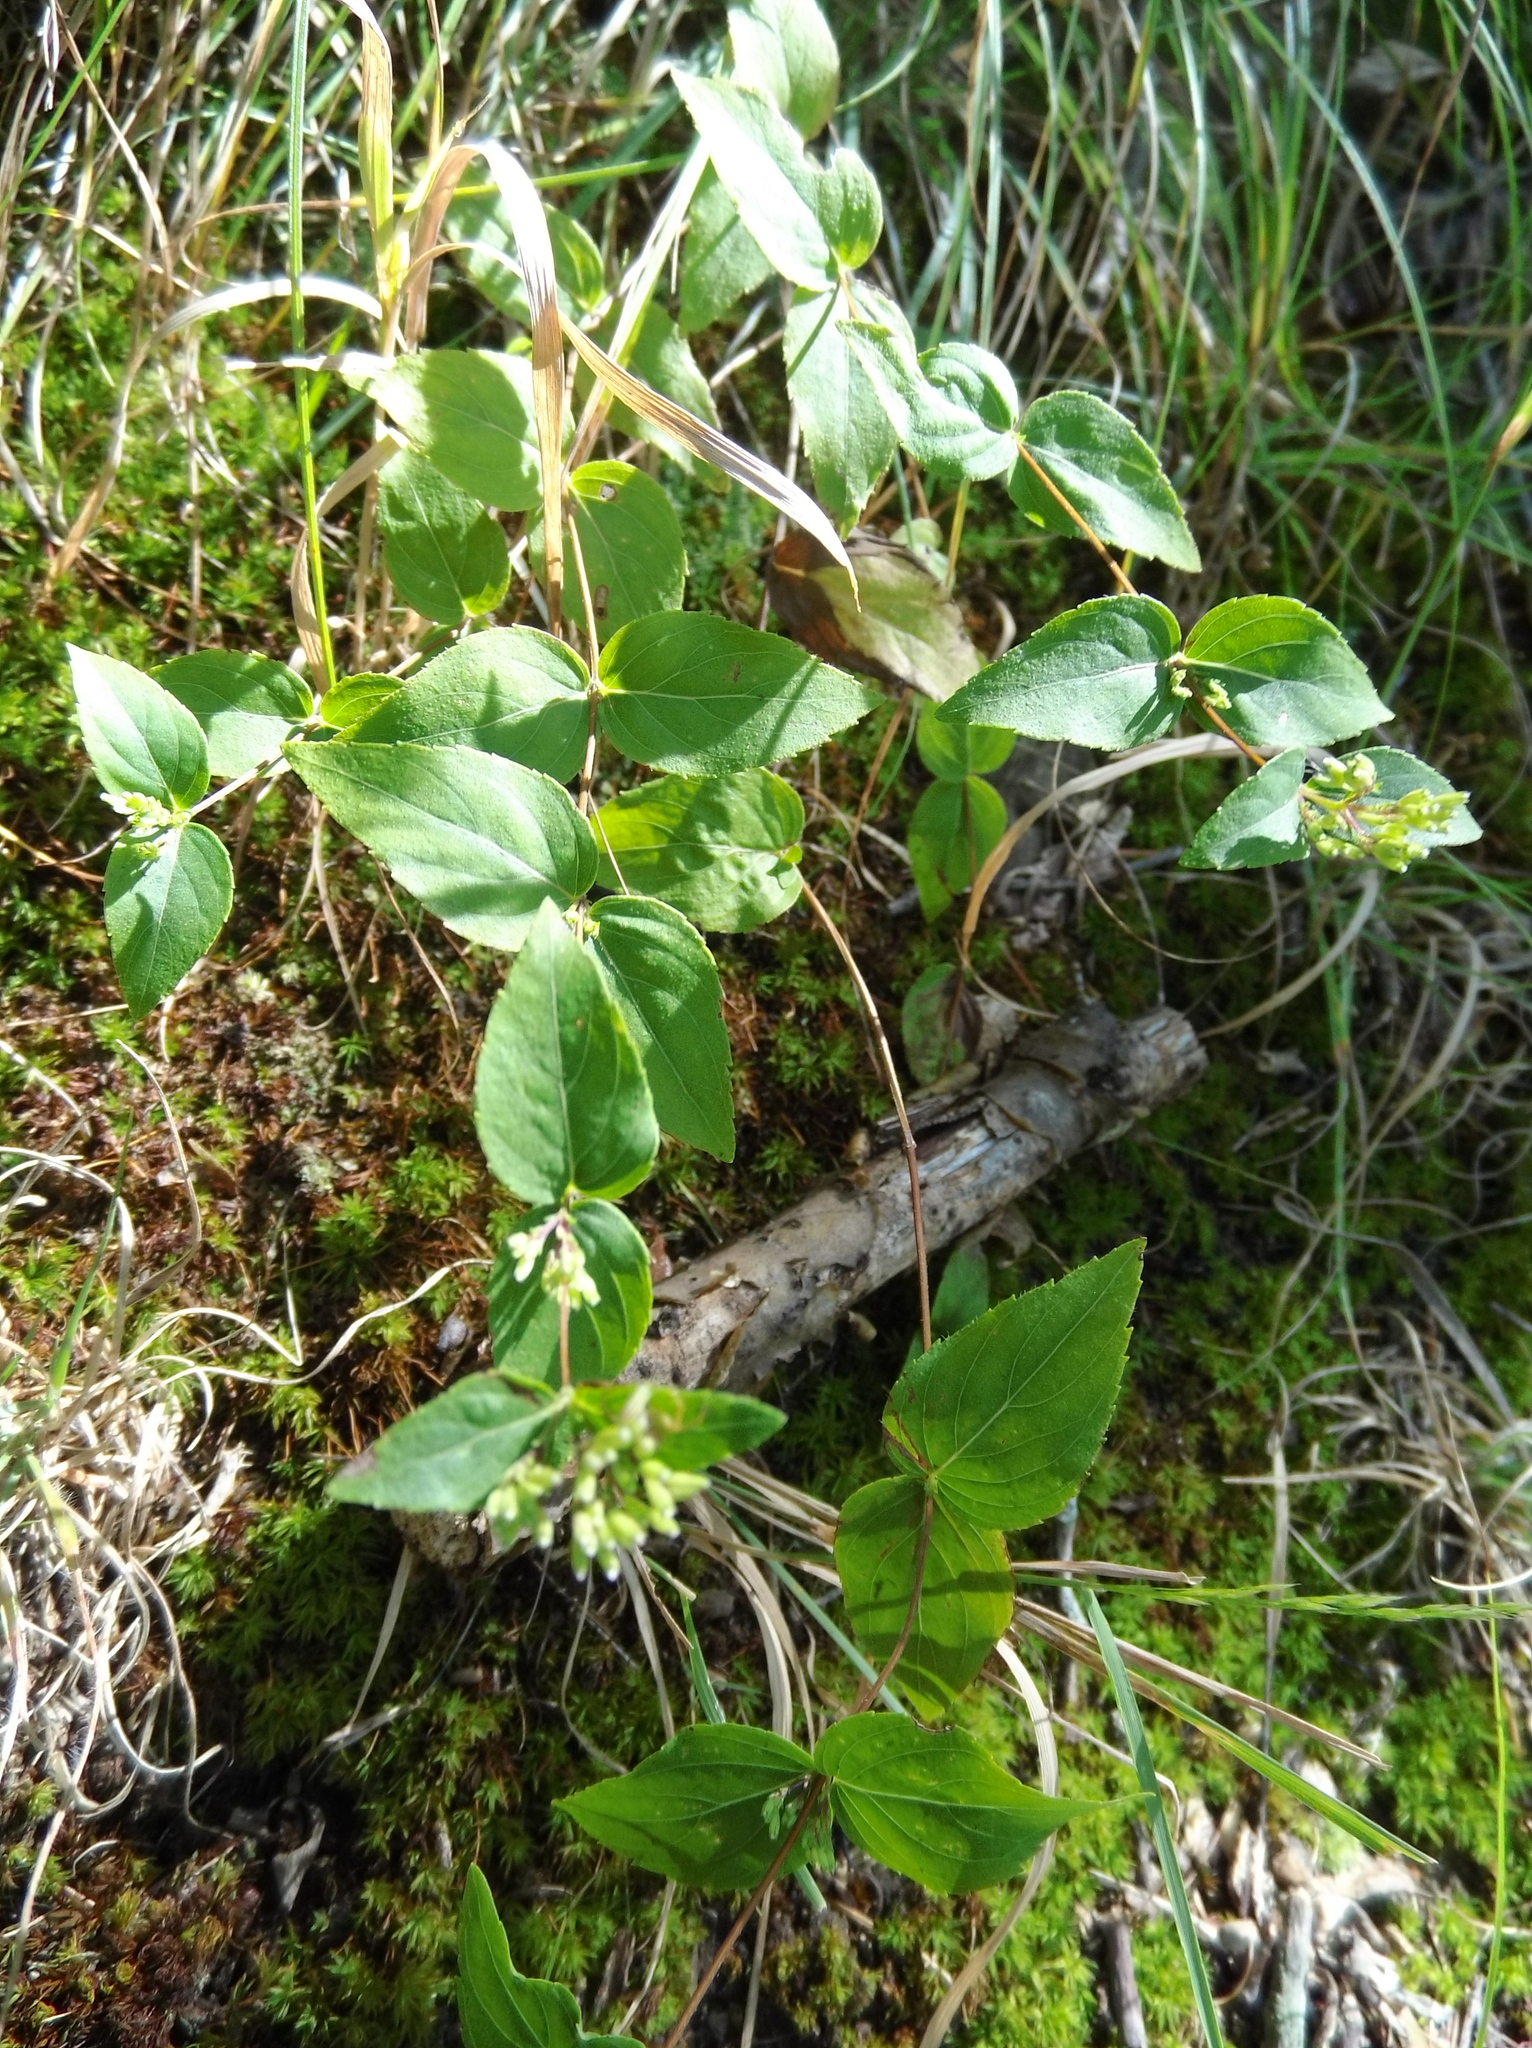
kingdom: Plantae
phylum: Tracheophyta
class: Magnoliopsida
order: Lamiales
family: Lamiaceae
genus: Cunila
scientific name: Cunila origanoides
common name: American dittany
